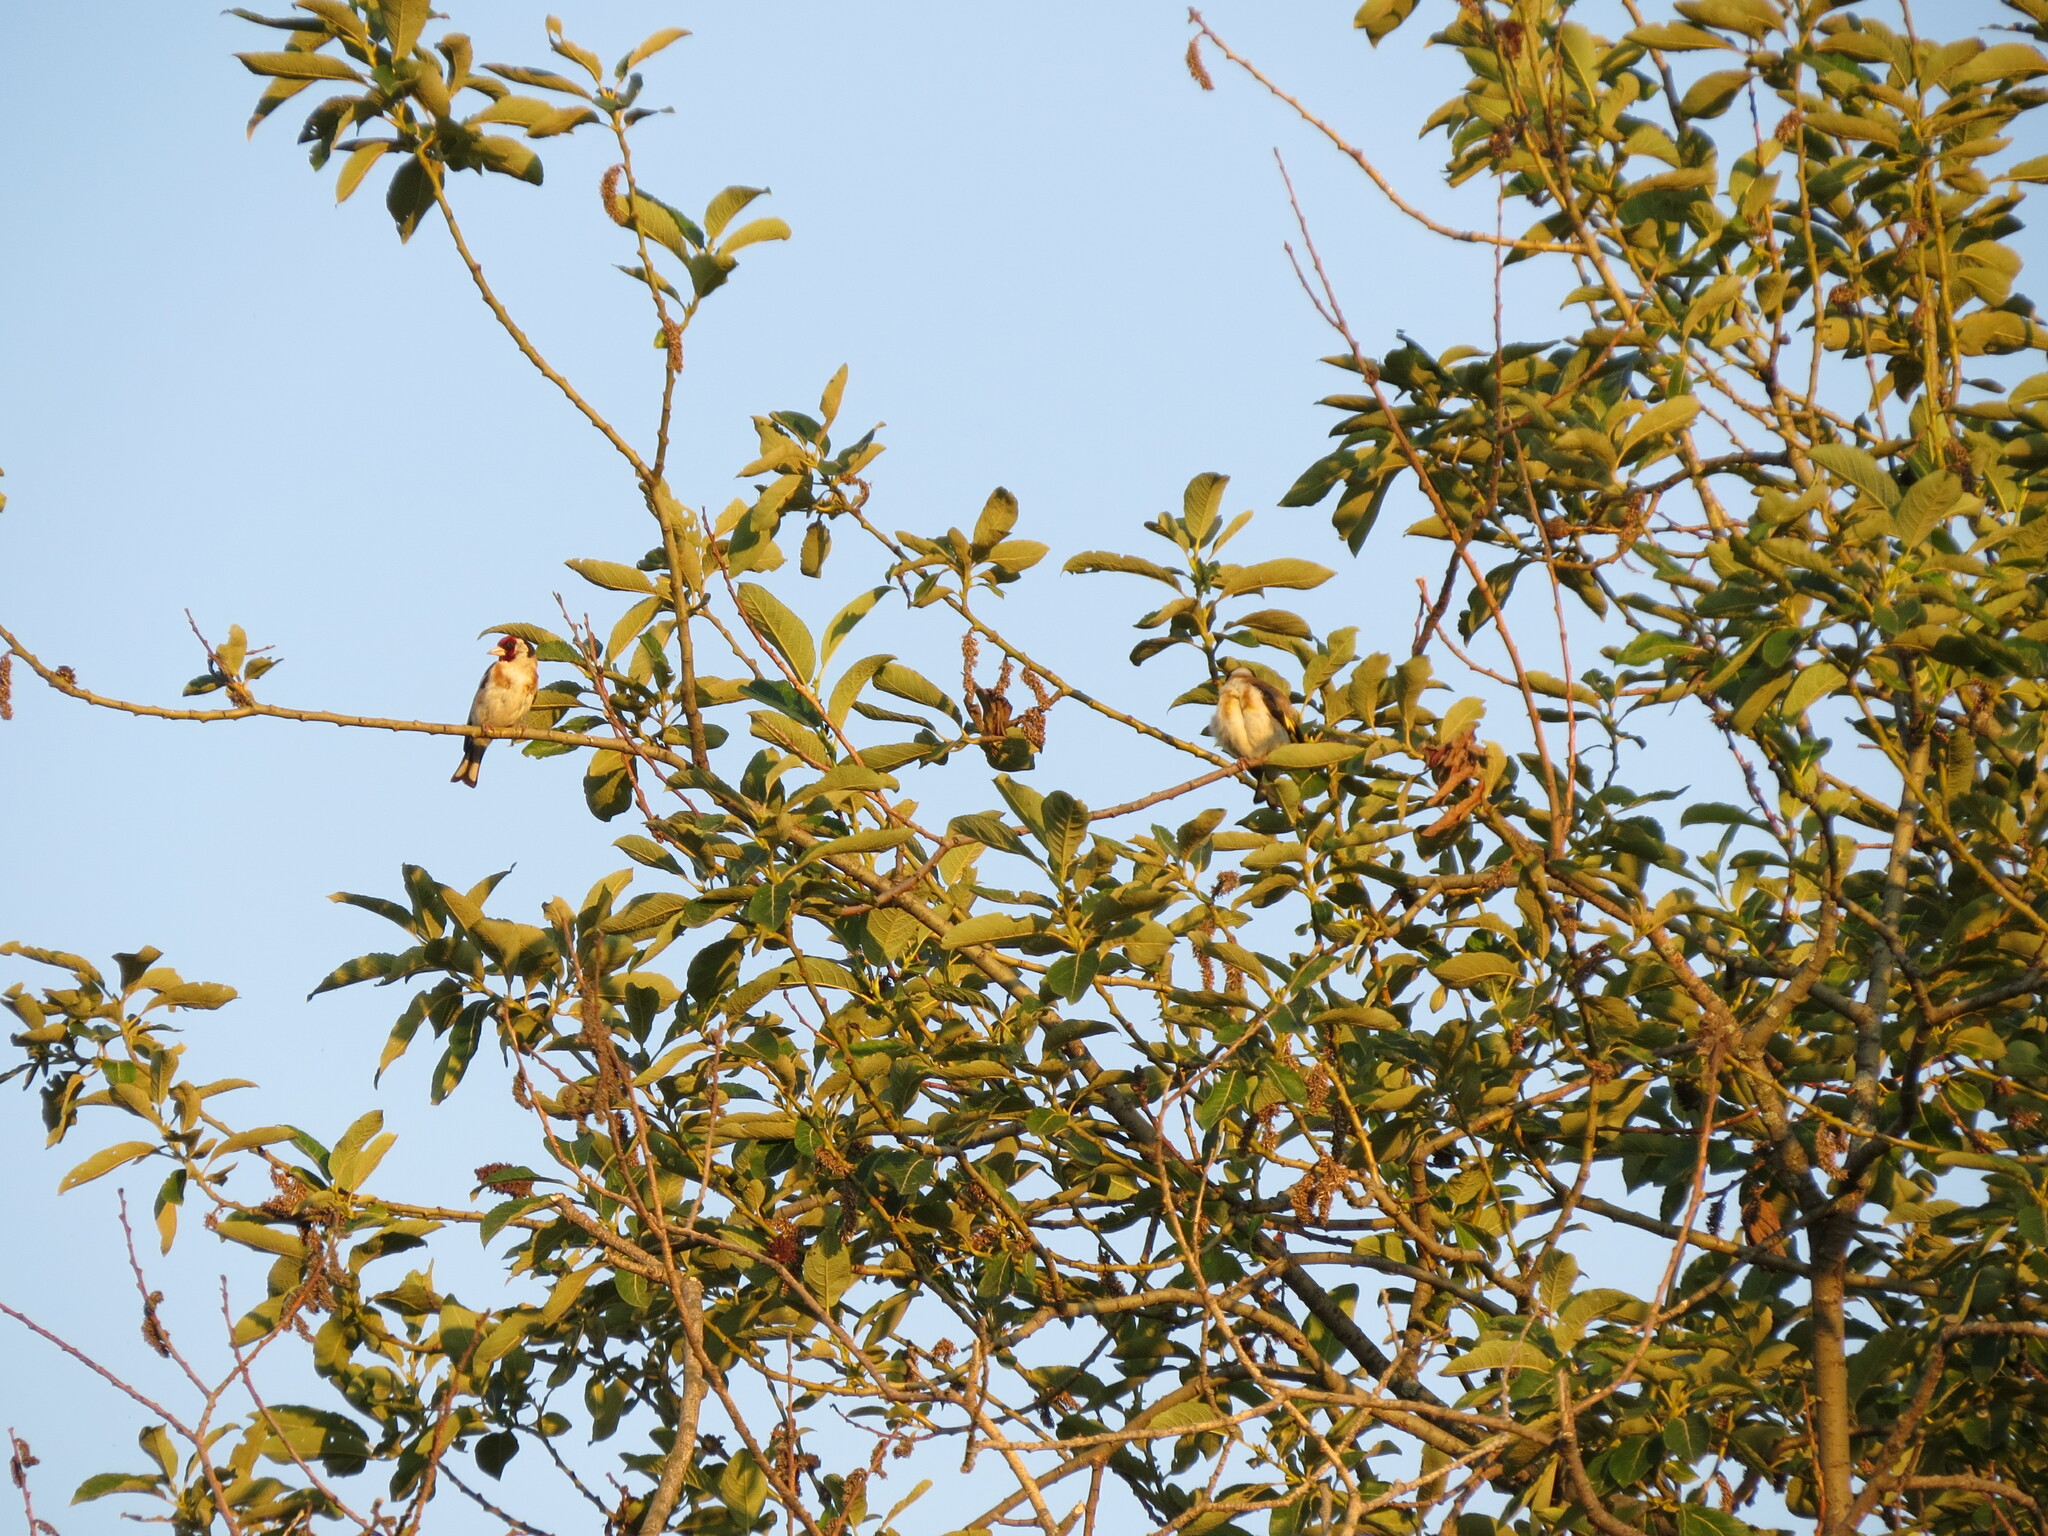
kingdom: Animalia
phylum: Chordata
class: Aves
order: Passeriformes
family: Fringillidae
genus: Carduelis
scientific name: Carduelis carduelis
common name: European goldfinch
